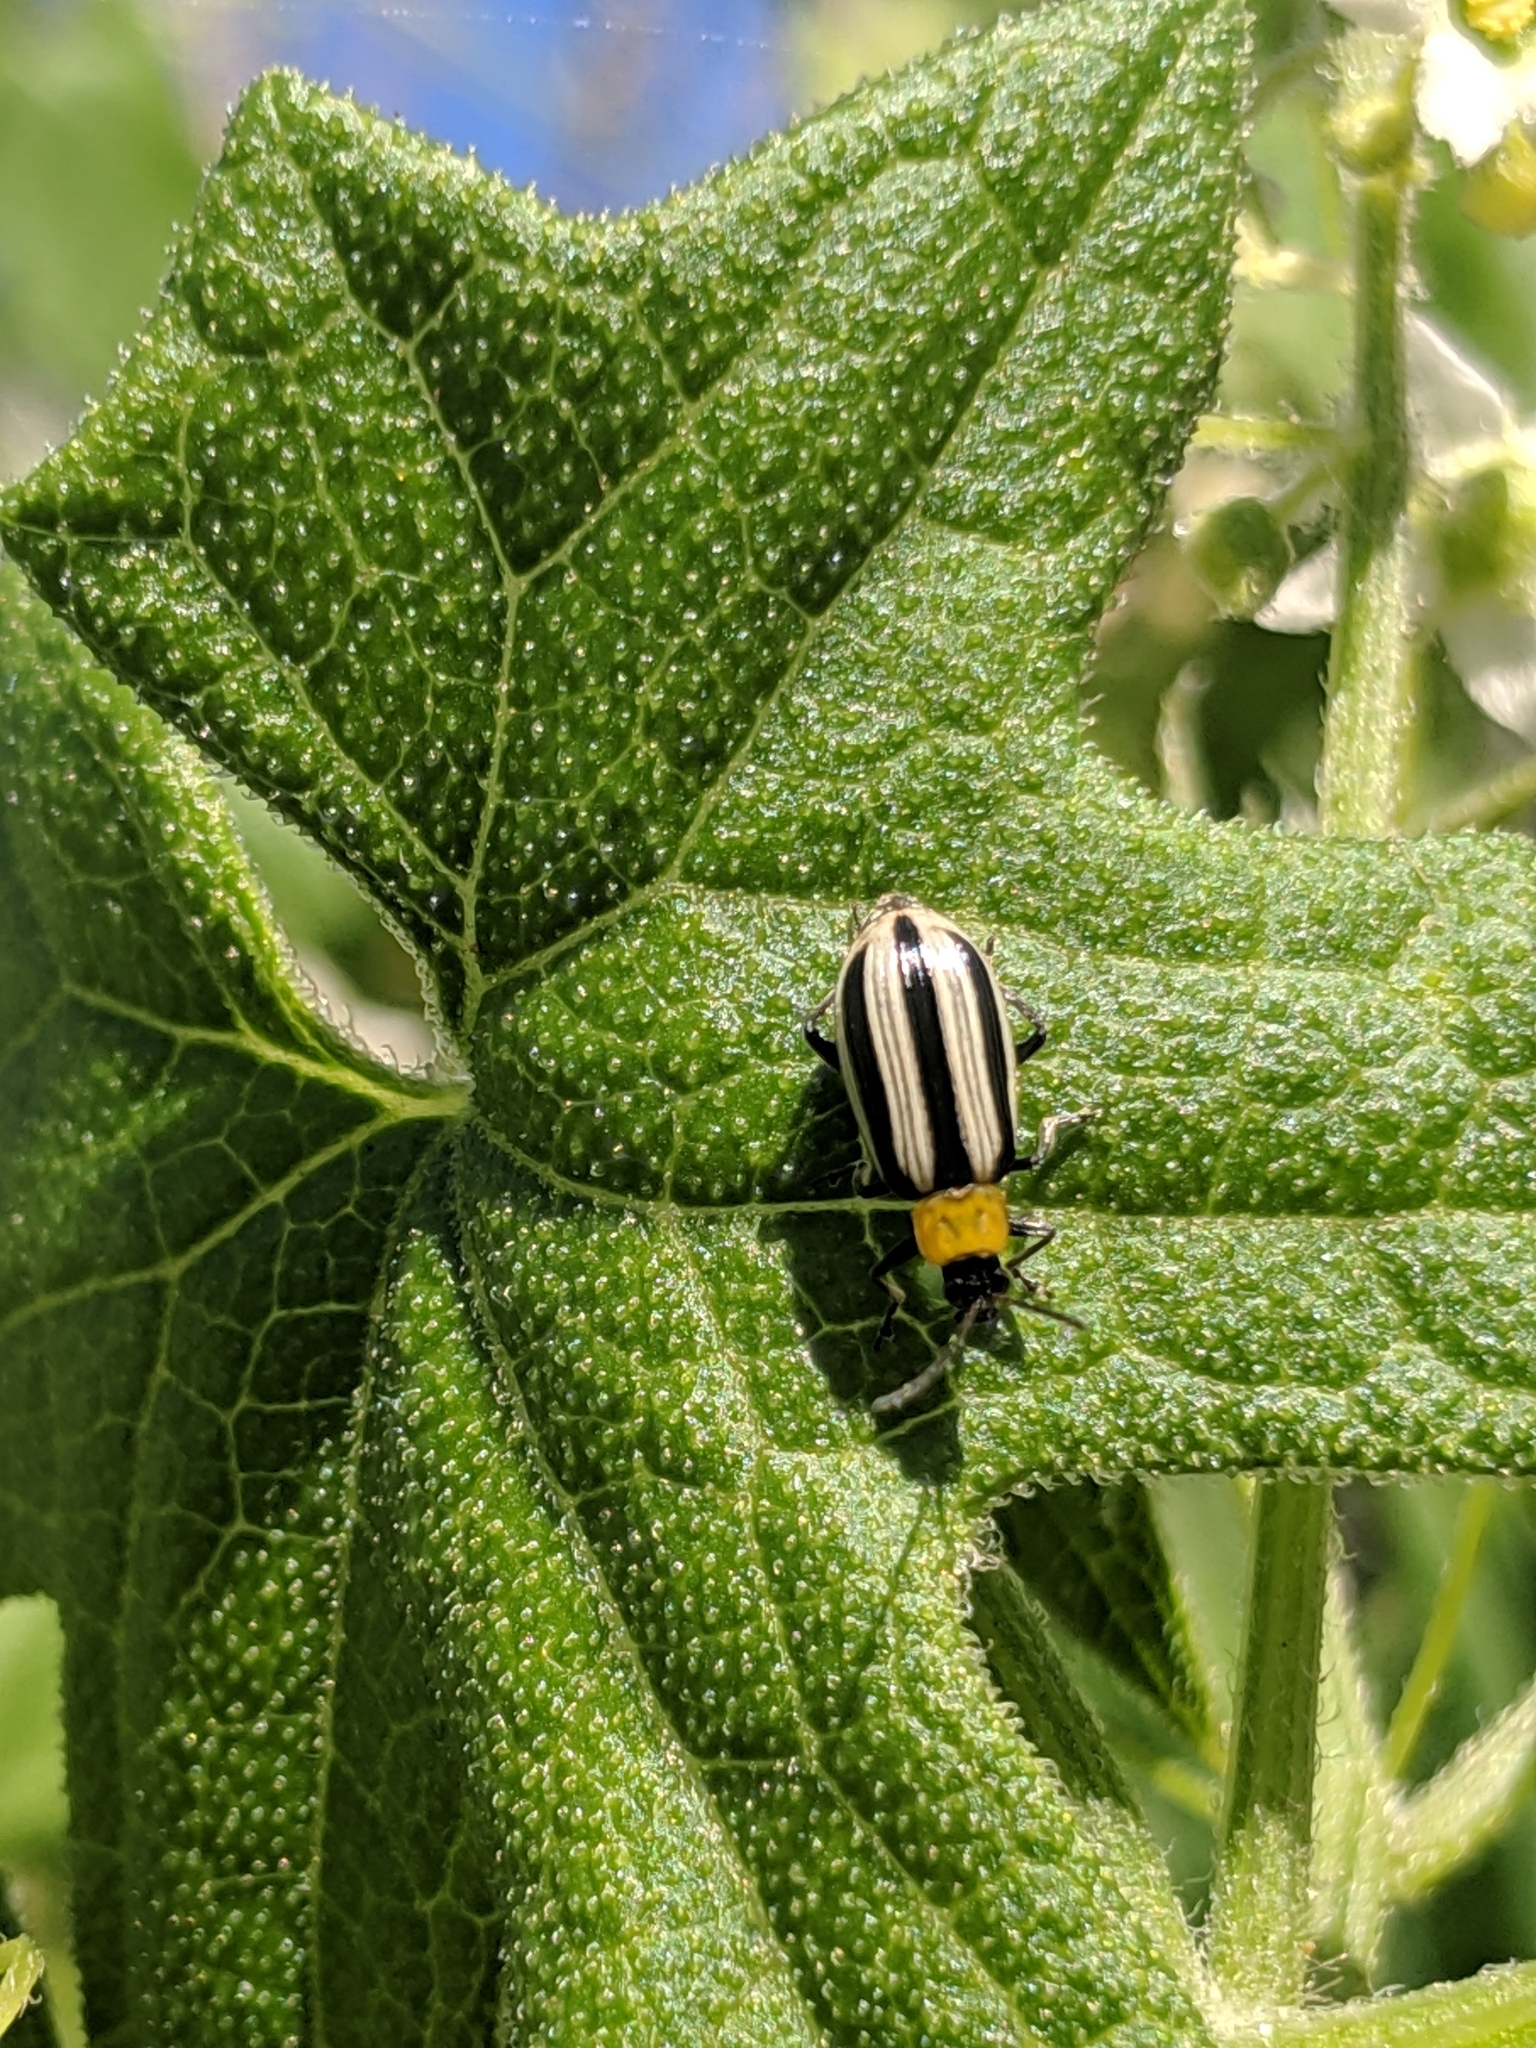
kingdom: Animalia
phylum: Arthropoda
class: Insecta
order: Coleoptera
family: Chrysomelidae
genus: Acalymma
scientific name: Acalymma trivittatum
